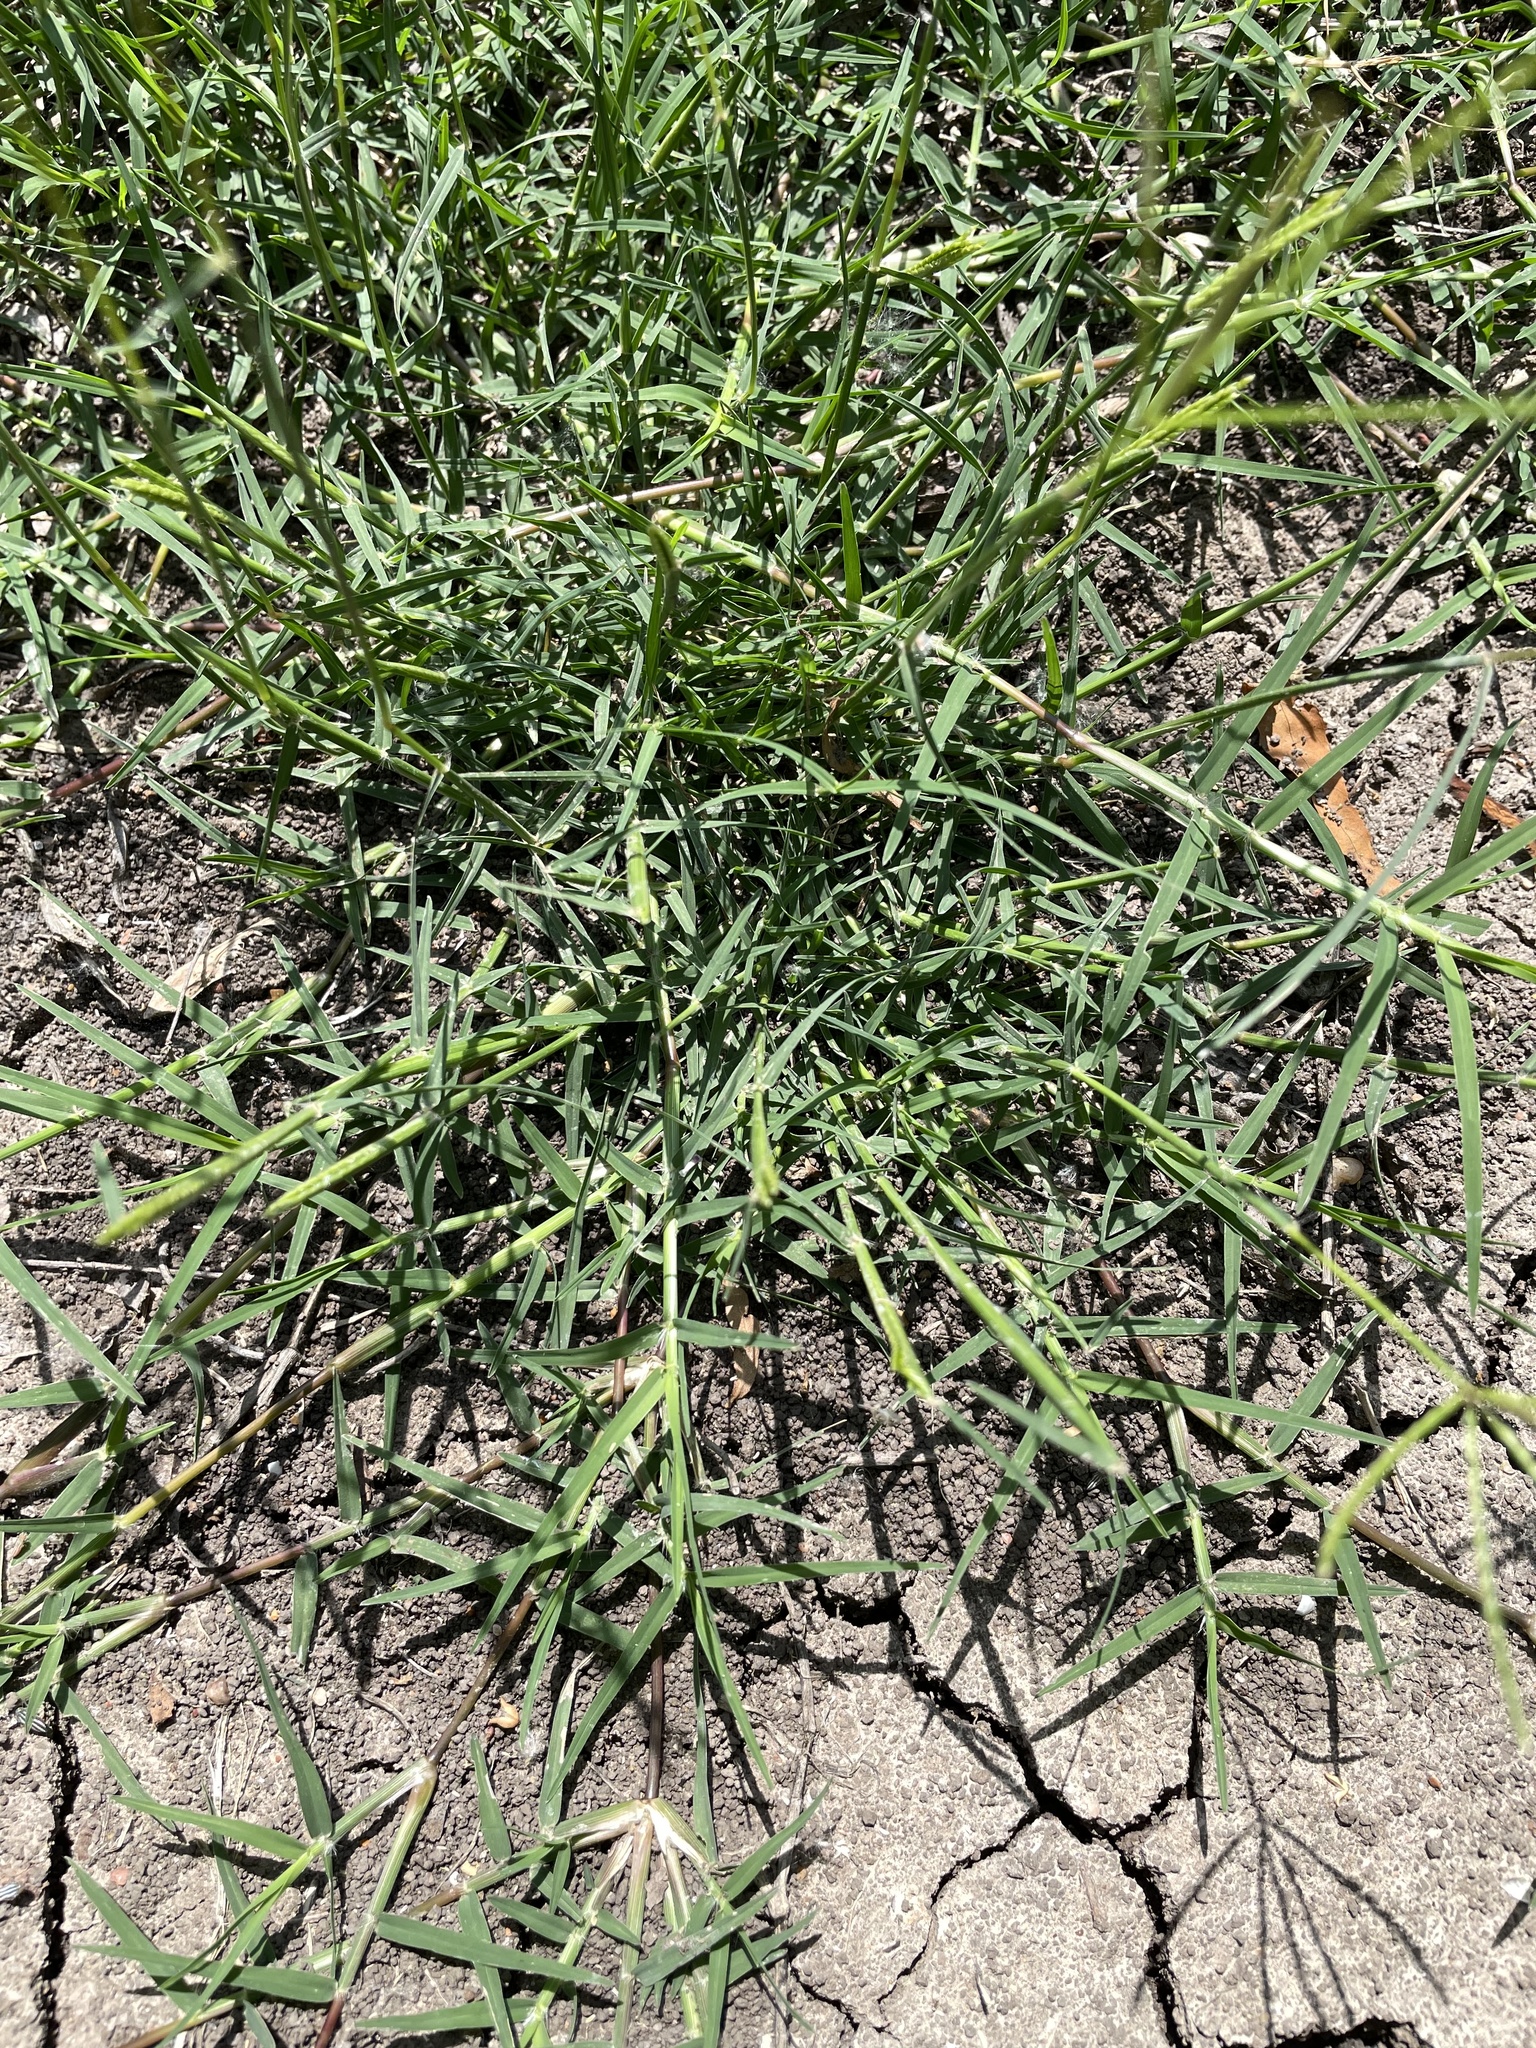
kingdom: Plantae
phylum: Tracheophyta
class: Liliopsida
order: Poales
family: Poaceae
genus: Cynodon
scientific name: Cynodon dactylon
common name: Bermuda grass
